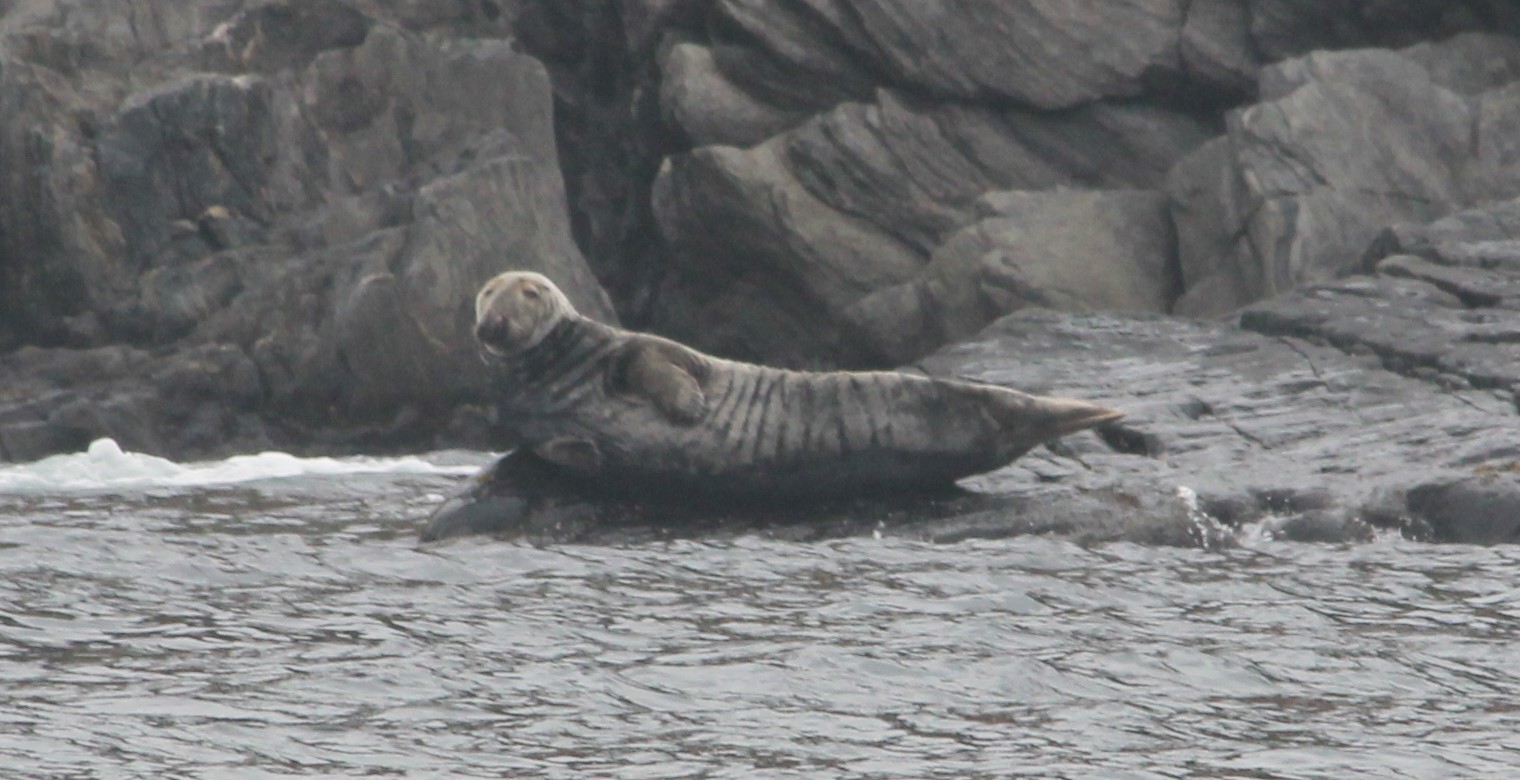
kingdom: Animalia
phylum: Chordata
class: Mammalia
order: Carnivora
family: Phocidae
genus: Halichoerus
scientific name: Halichoerus grypus
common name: Grey seal
